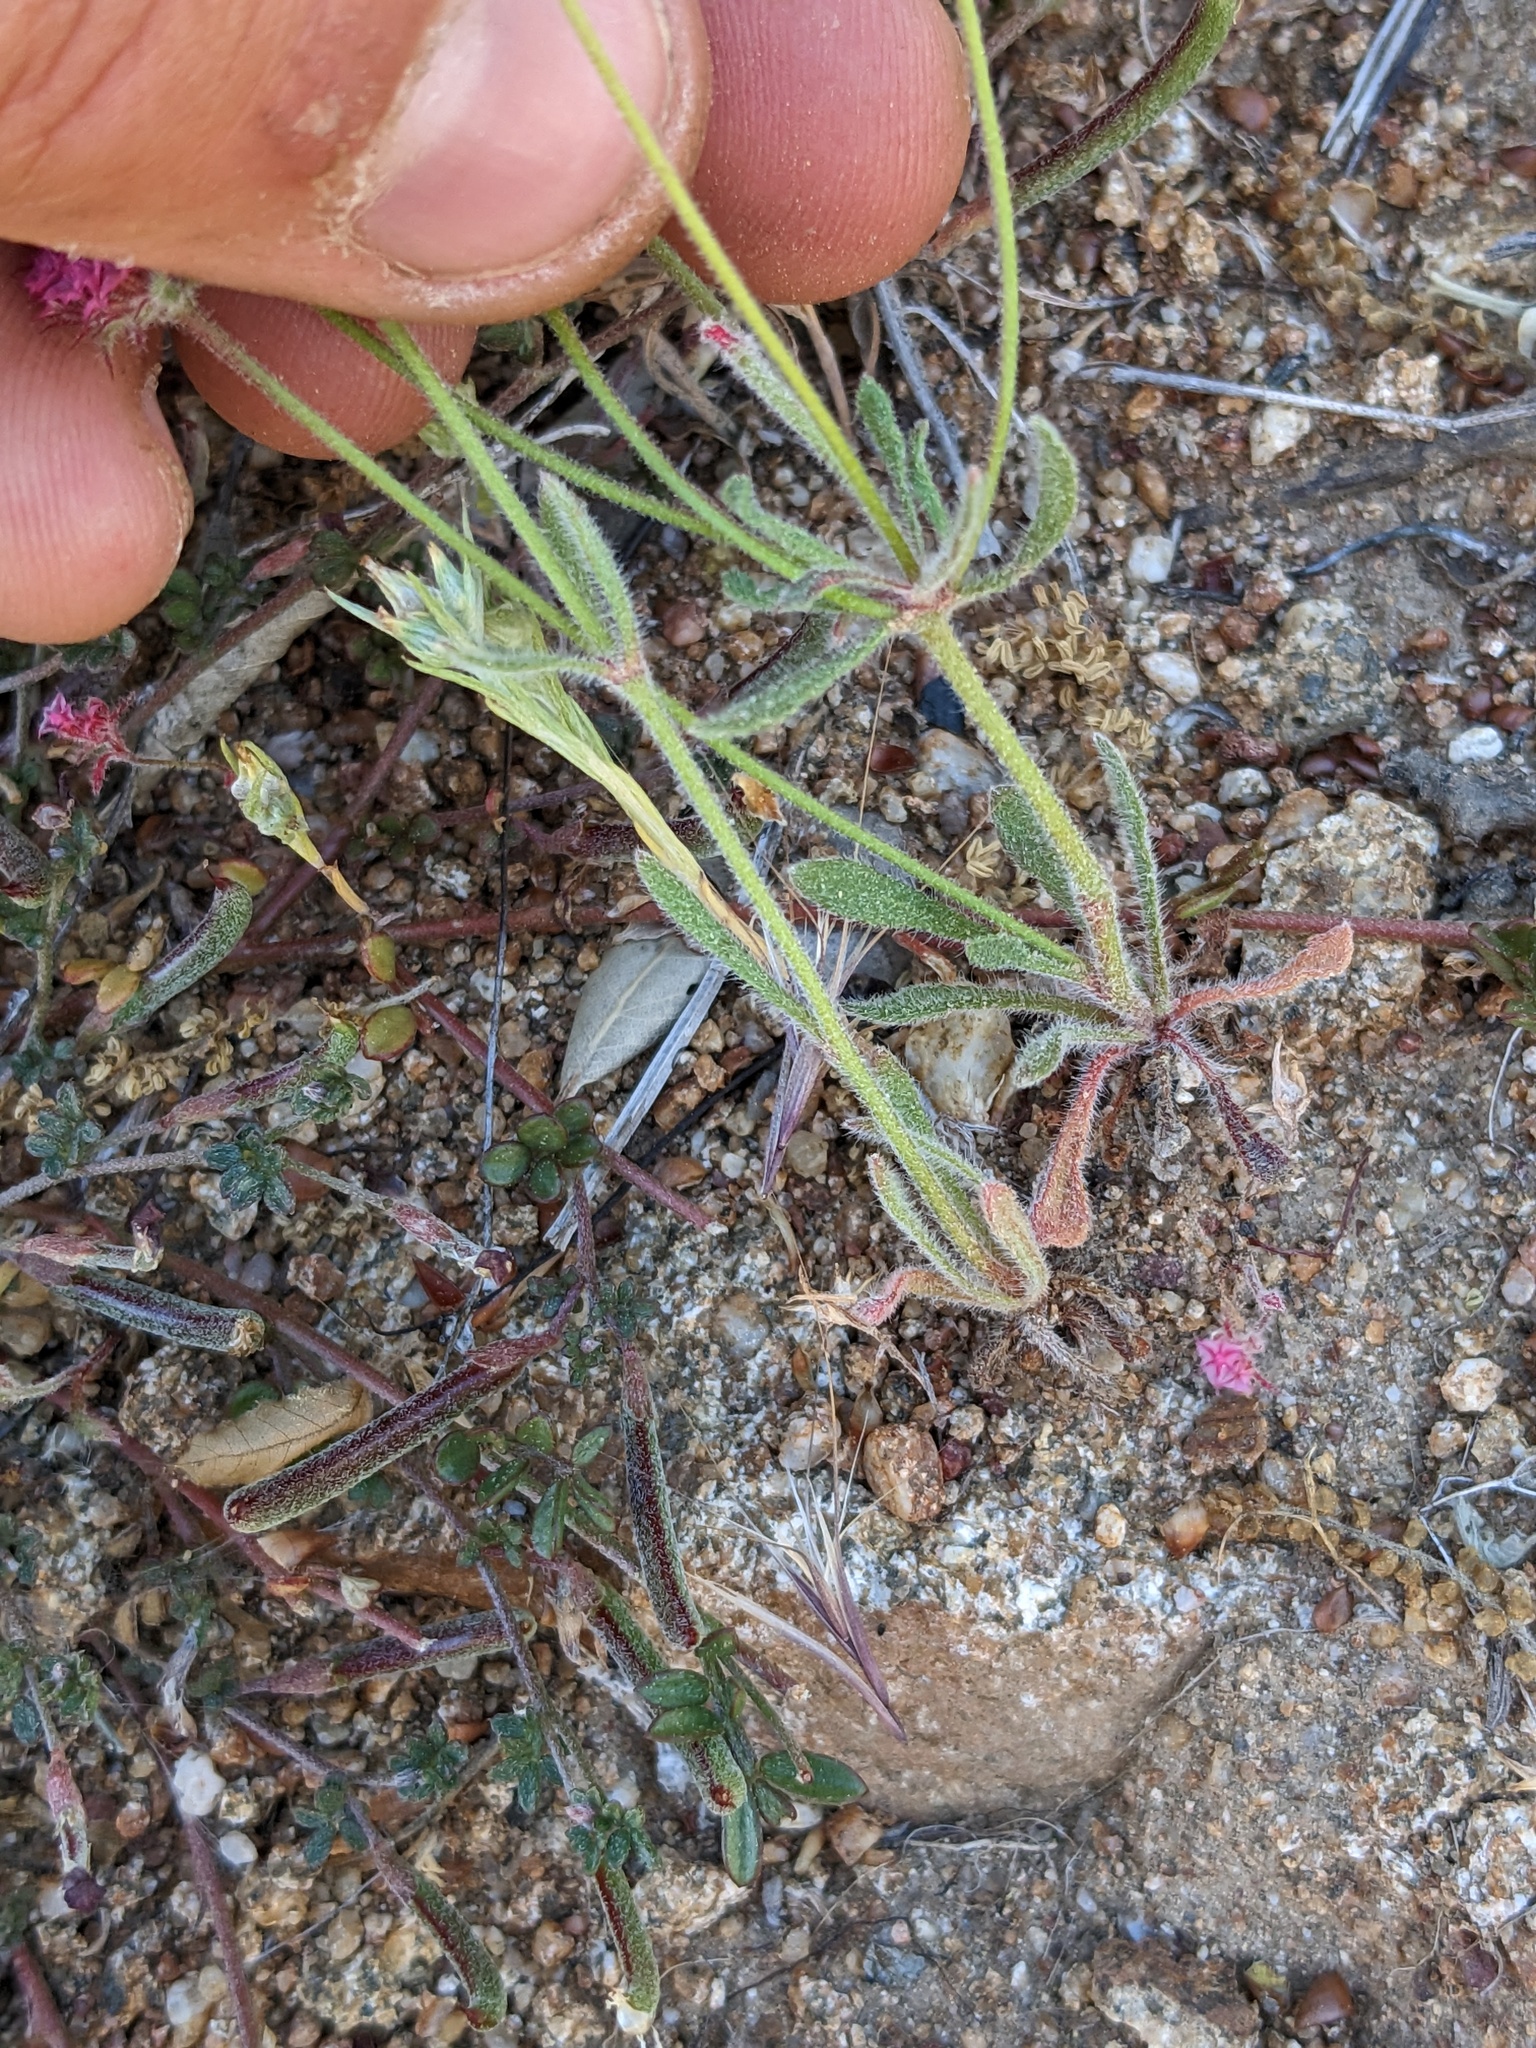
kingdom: Plantae
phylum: Tracheophyta
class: Magnoliopsida
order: Caryophyllales
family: Polygonaceae
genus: Chorizanthe
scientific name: Chorizanthe douglasii
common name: Douglas's spineflower
